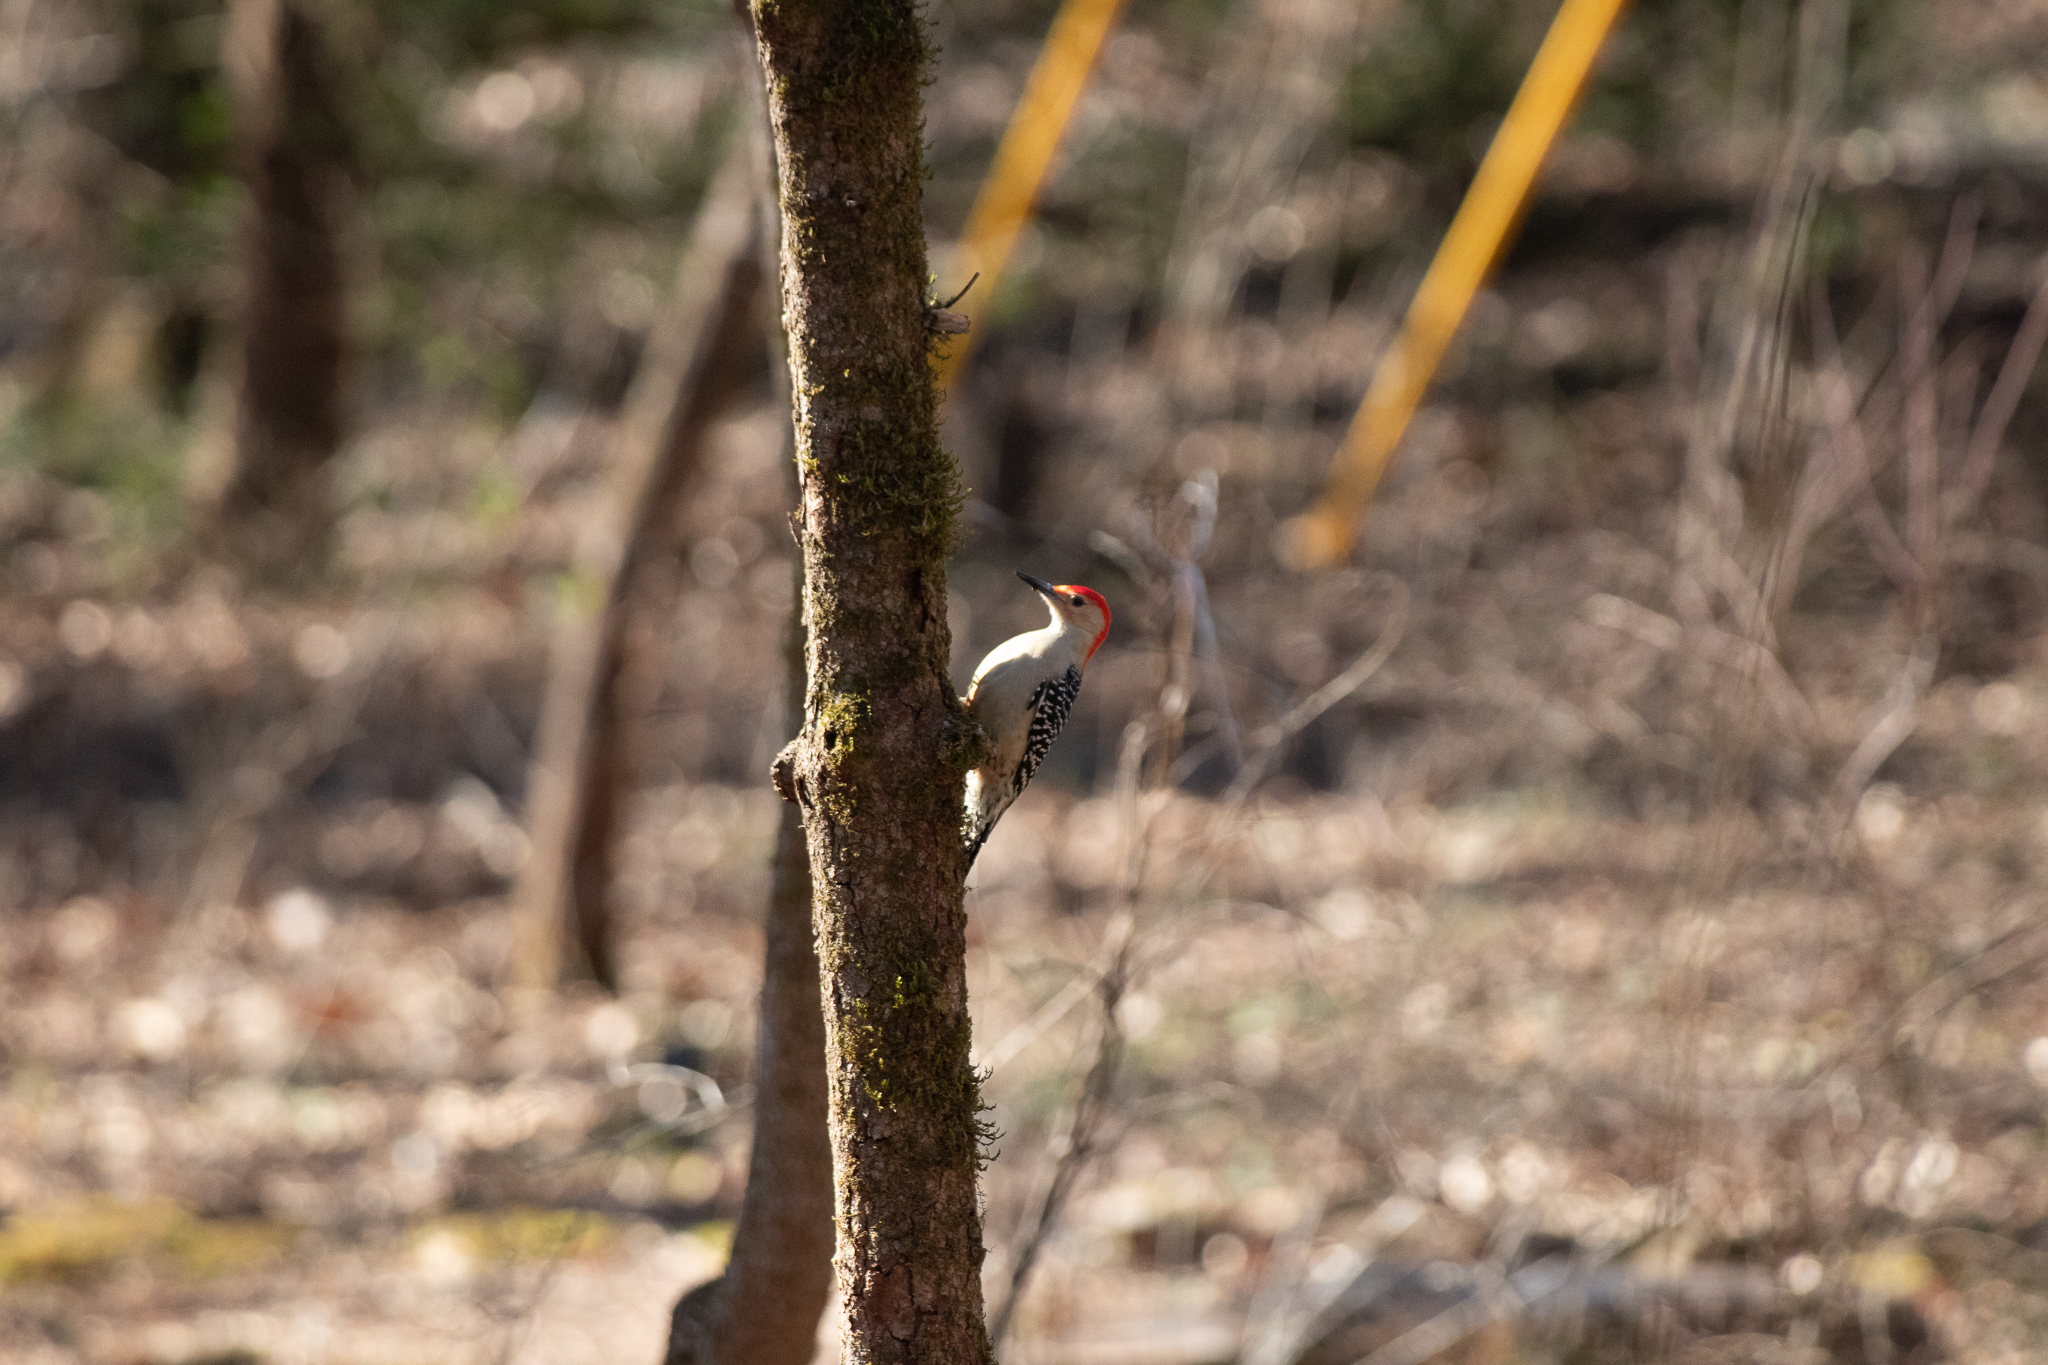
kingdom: Animalia
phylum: Chordata
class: Aves
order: Piciformes
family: Picidae
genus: Melanerpes
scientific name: Melanerpes carolinus
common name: Red-bellied woodpecker
